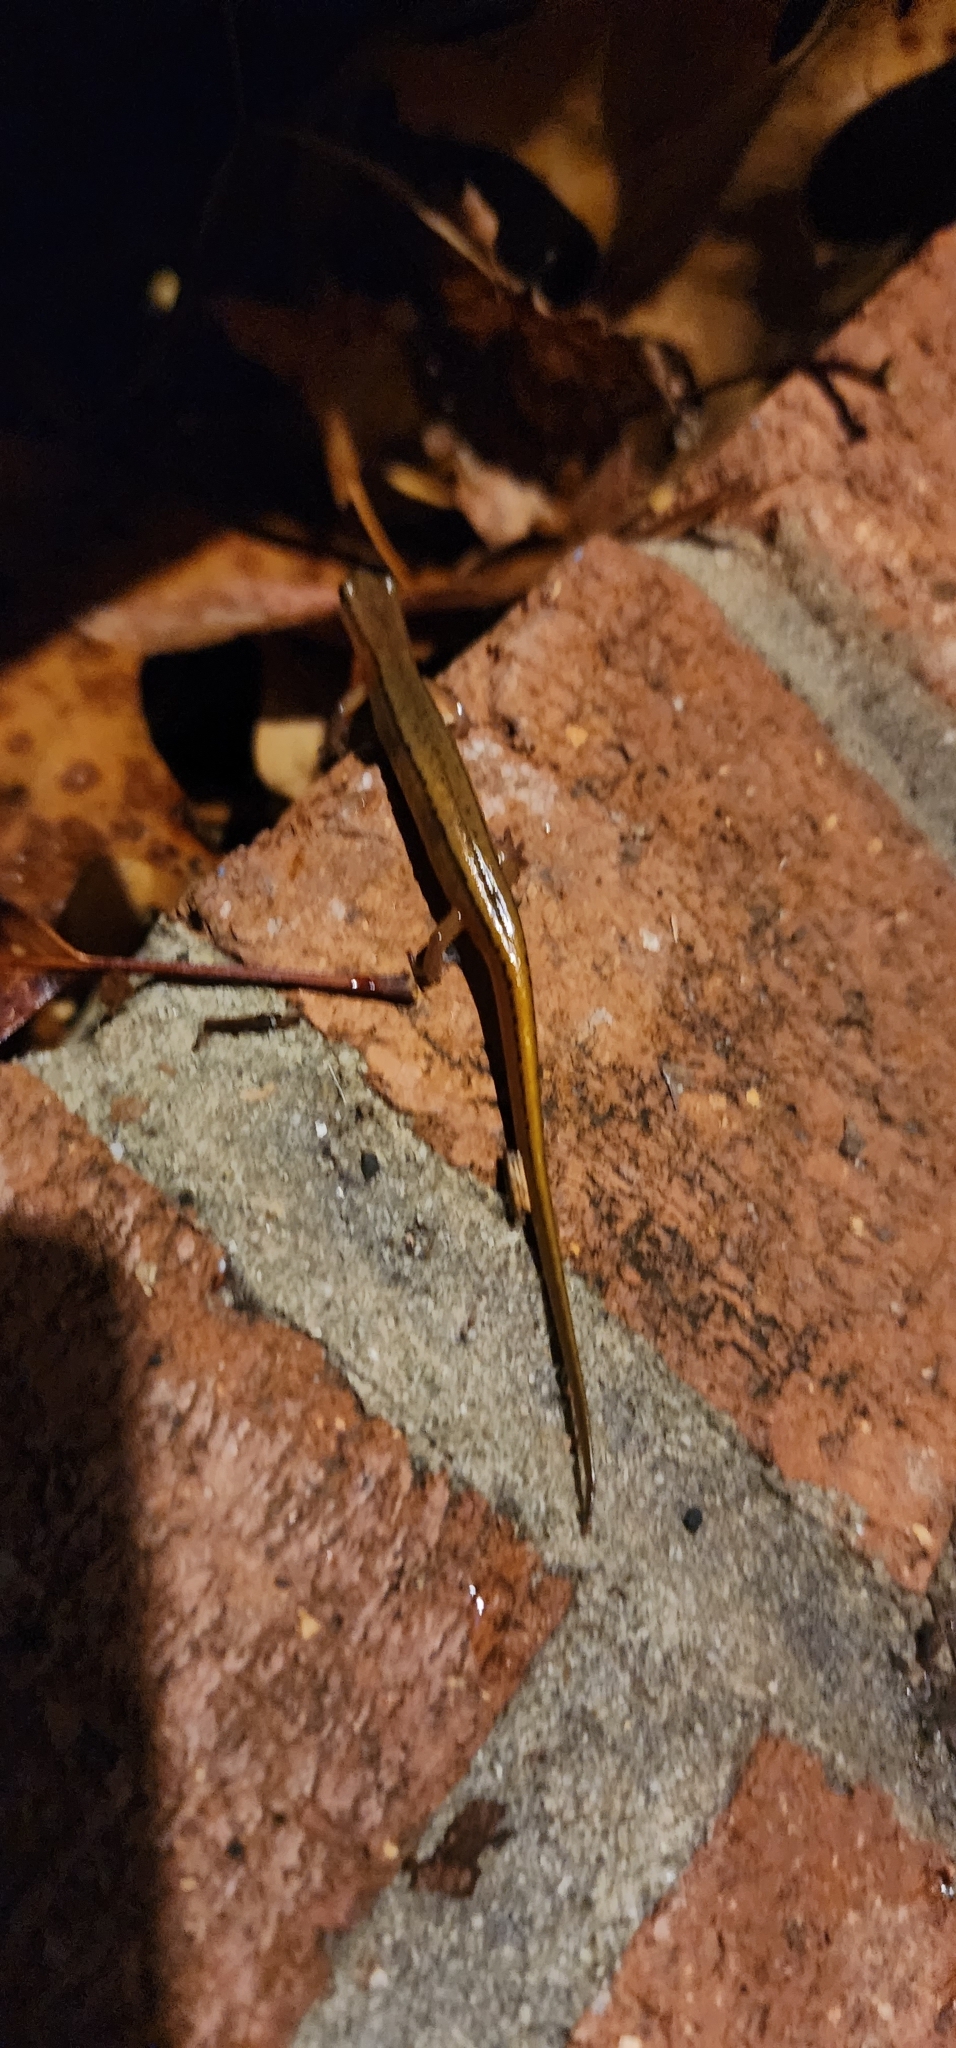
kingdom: Animalia
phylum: Chordata
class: Amphibia
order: Caudata
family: Plethodontidae
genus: Eurycea
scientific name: Eurycea bislineata
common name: Northern two-lined salamander
